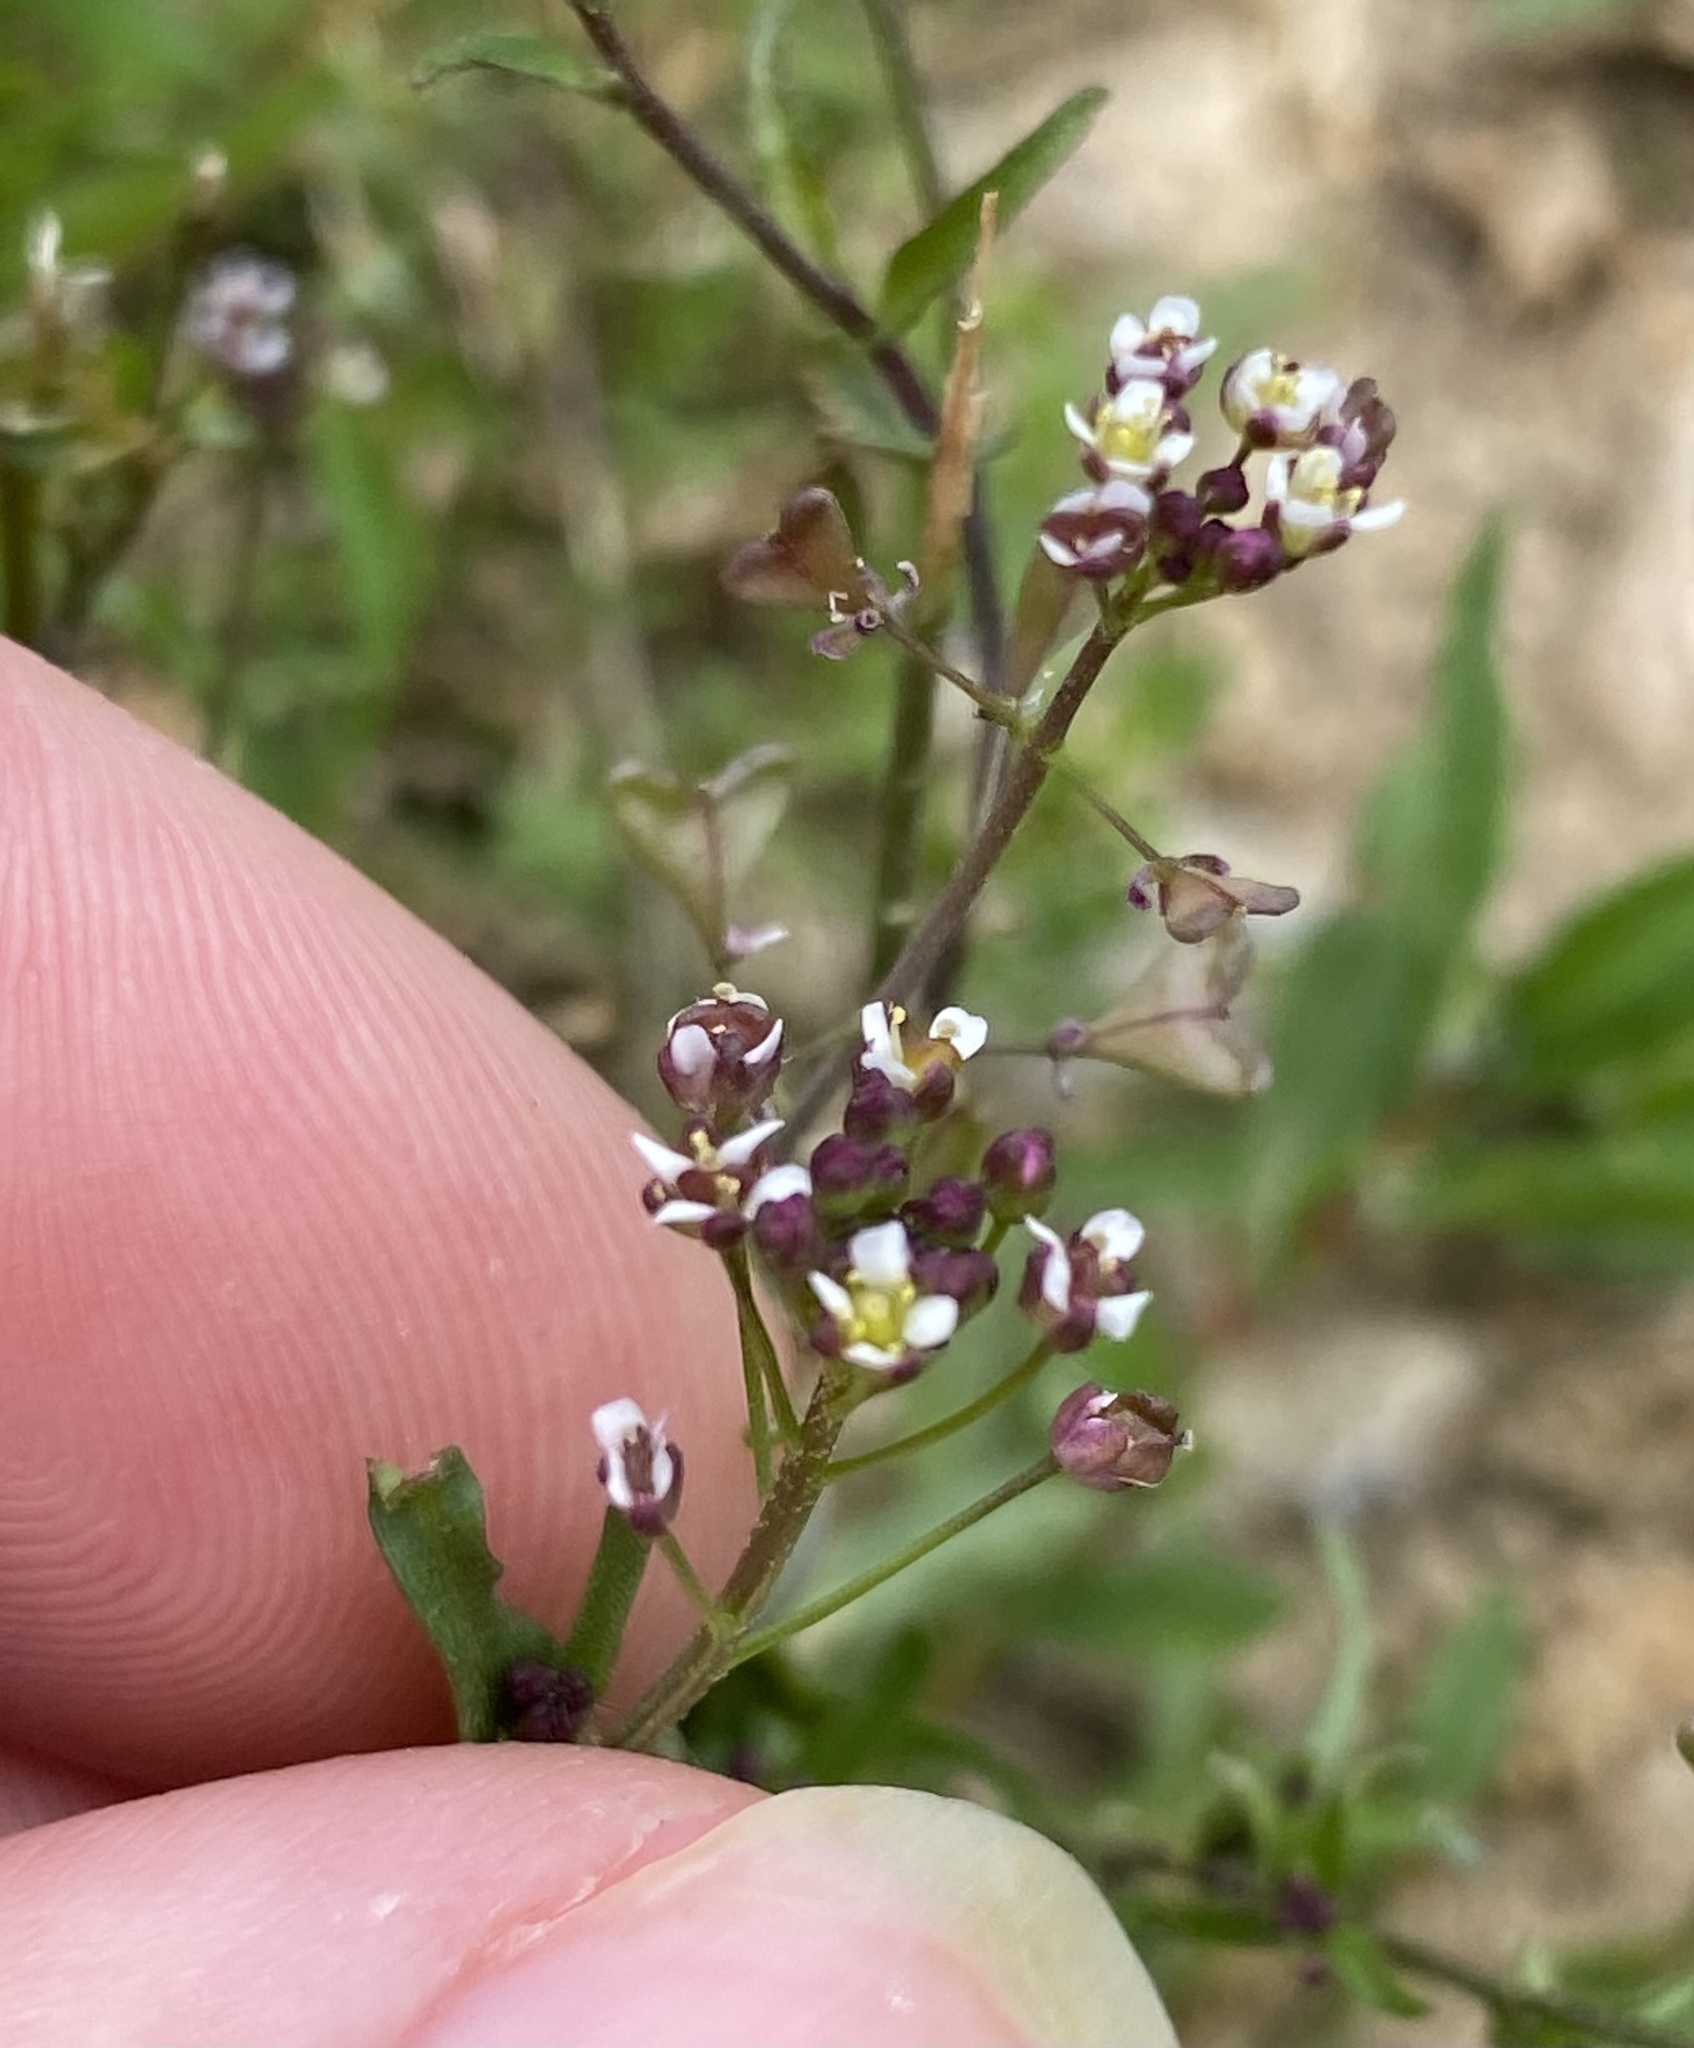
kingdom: Plantae
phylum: Tracheophyta
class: Magnoliopsida
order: Brassicales
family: Brassicaceae
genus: Capsella
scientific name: Capsella bursa-pastoris
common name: Shepherd's purse
